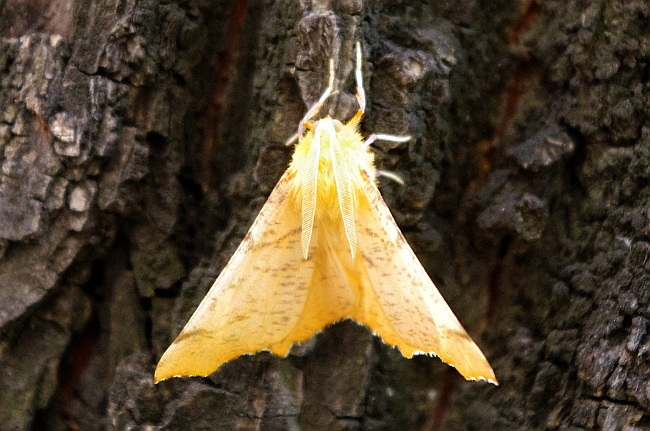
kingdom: Animalia
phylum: Arthropoda
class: Insecta
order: Lepidoptera
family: Geometridae
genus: Ennomos
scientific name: Ennomos autumnaria
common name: Large thorn
